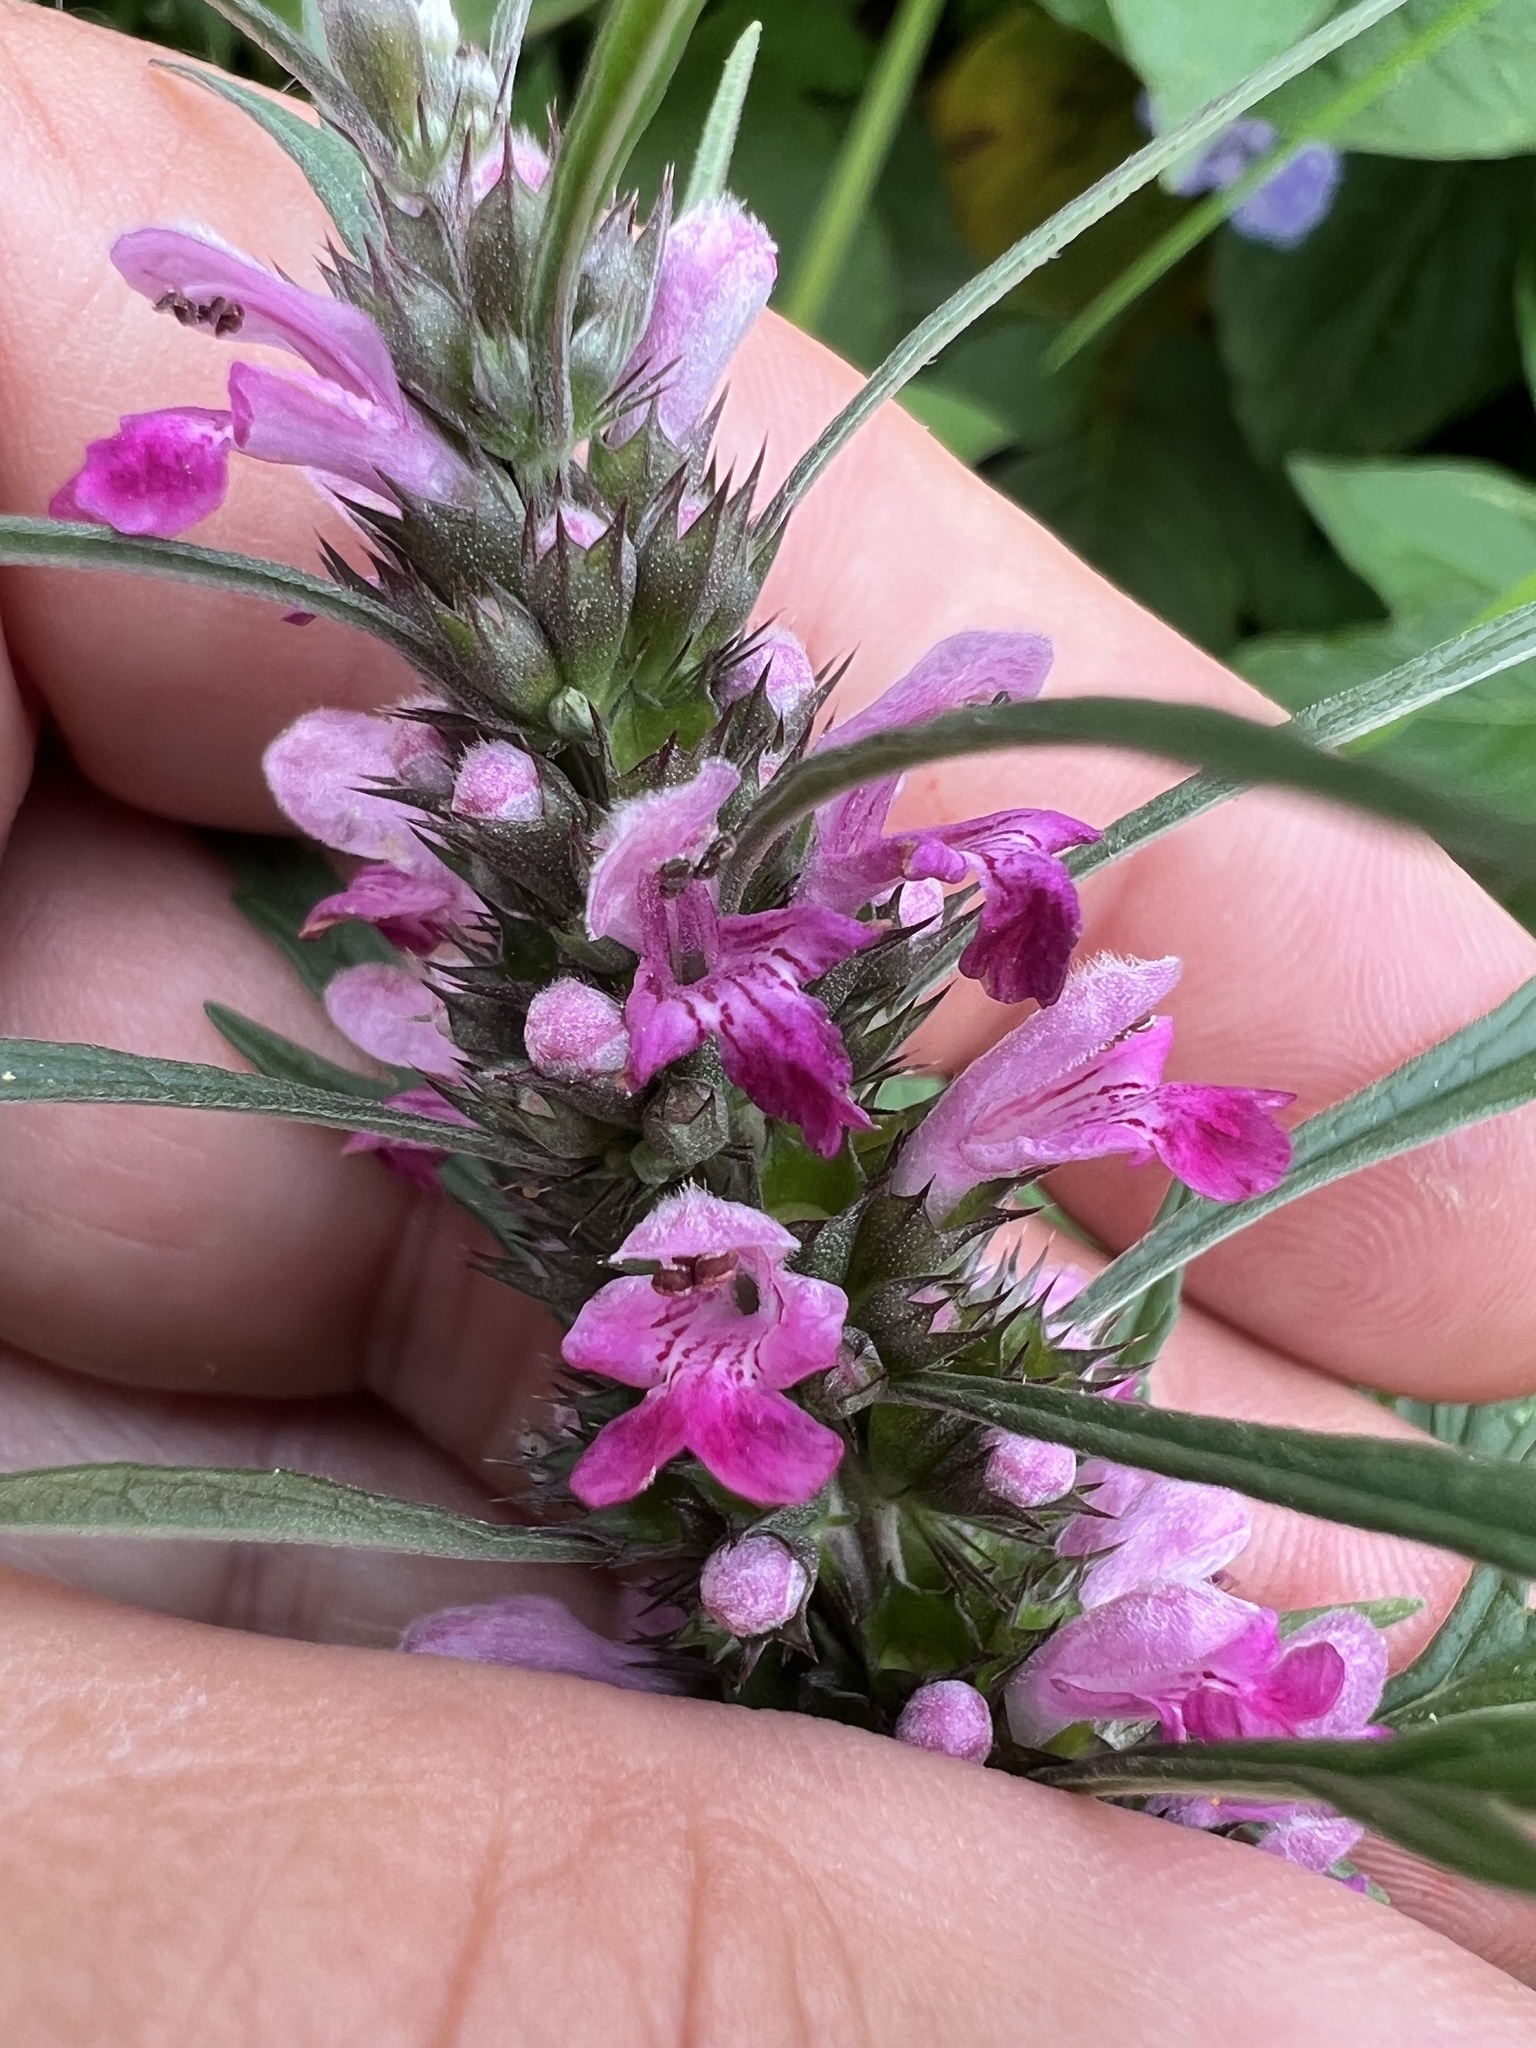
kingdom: Plantae
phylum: Tracheophyta
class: Magnoliopsida
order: Lamiales
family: Lamiaceae
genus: Leonurus
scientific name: Leonurus japonicus
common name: Honeyweed
